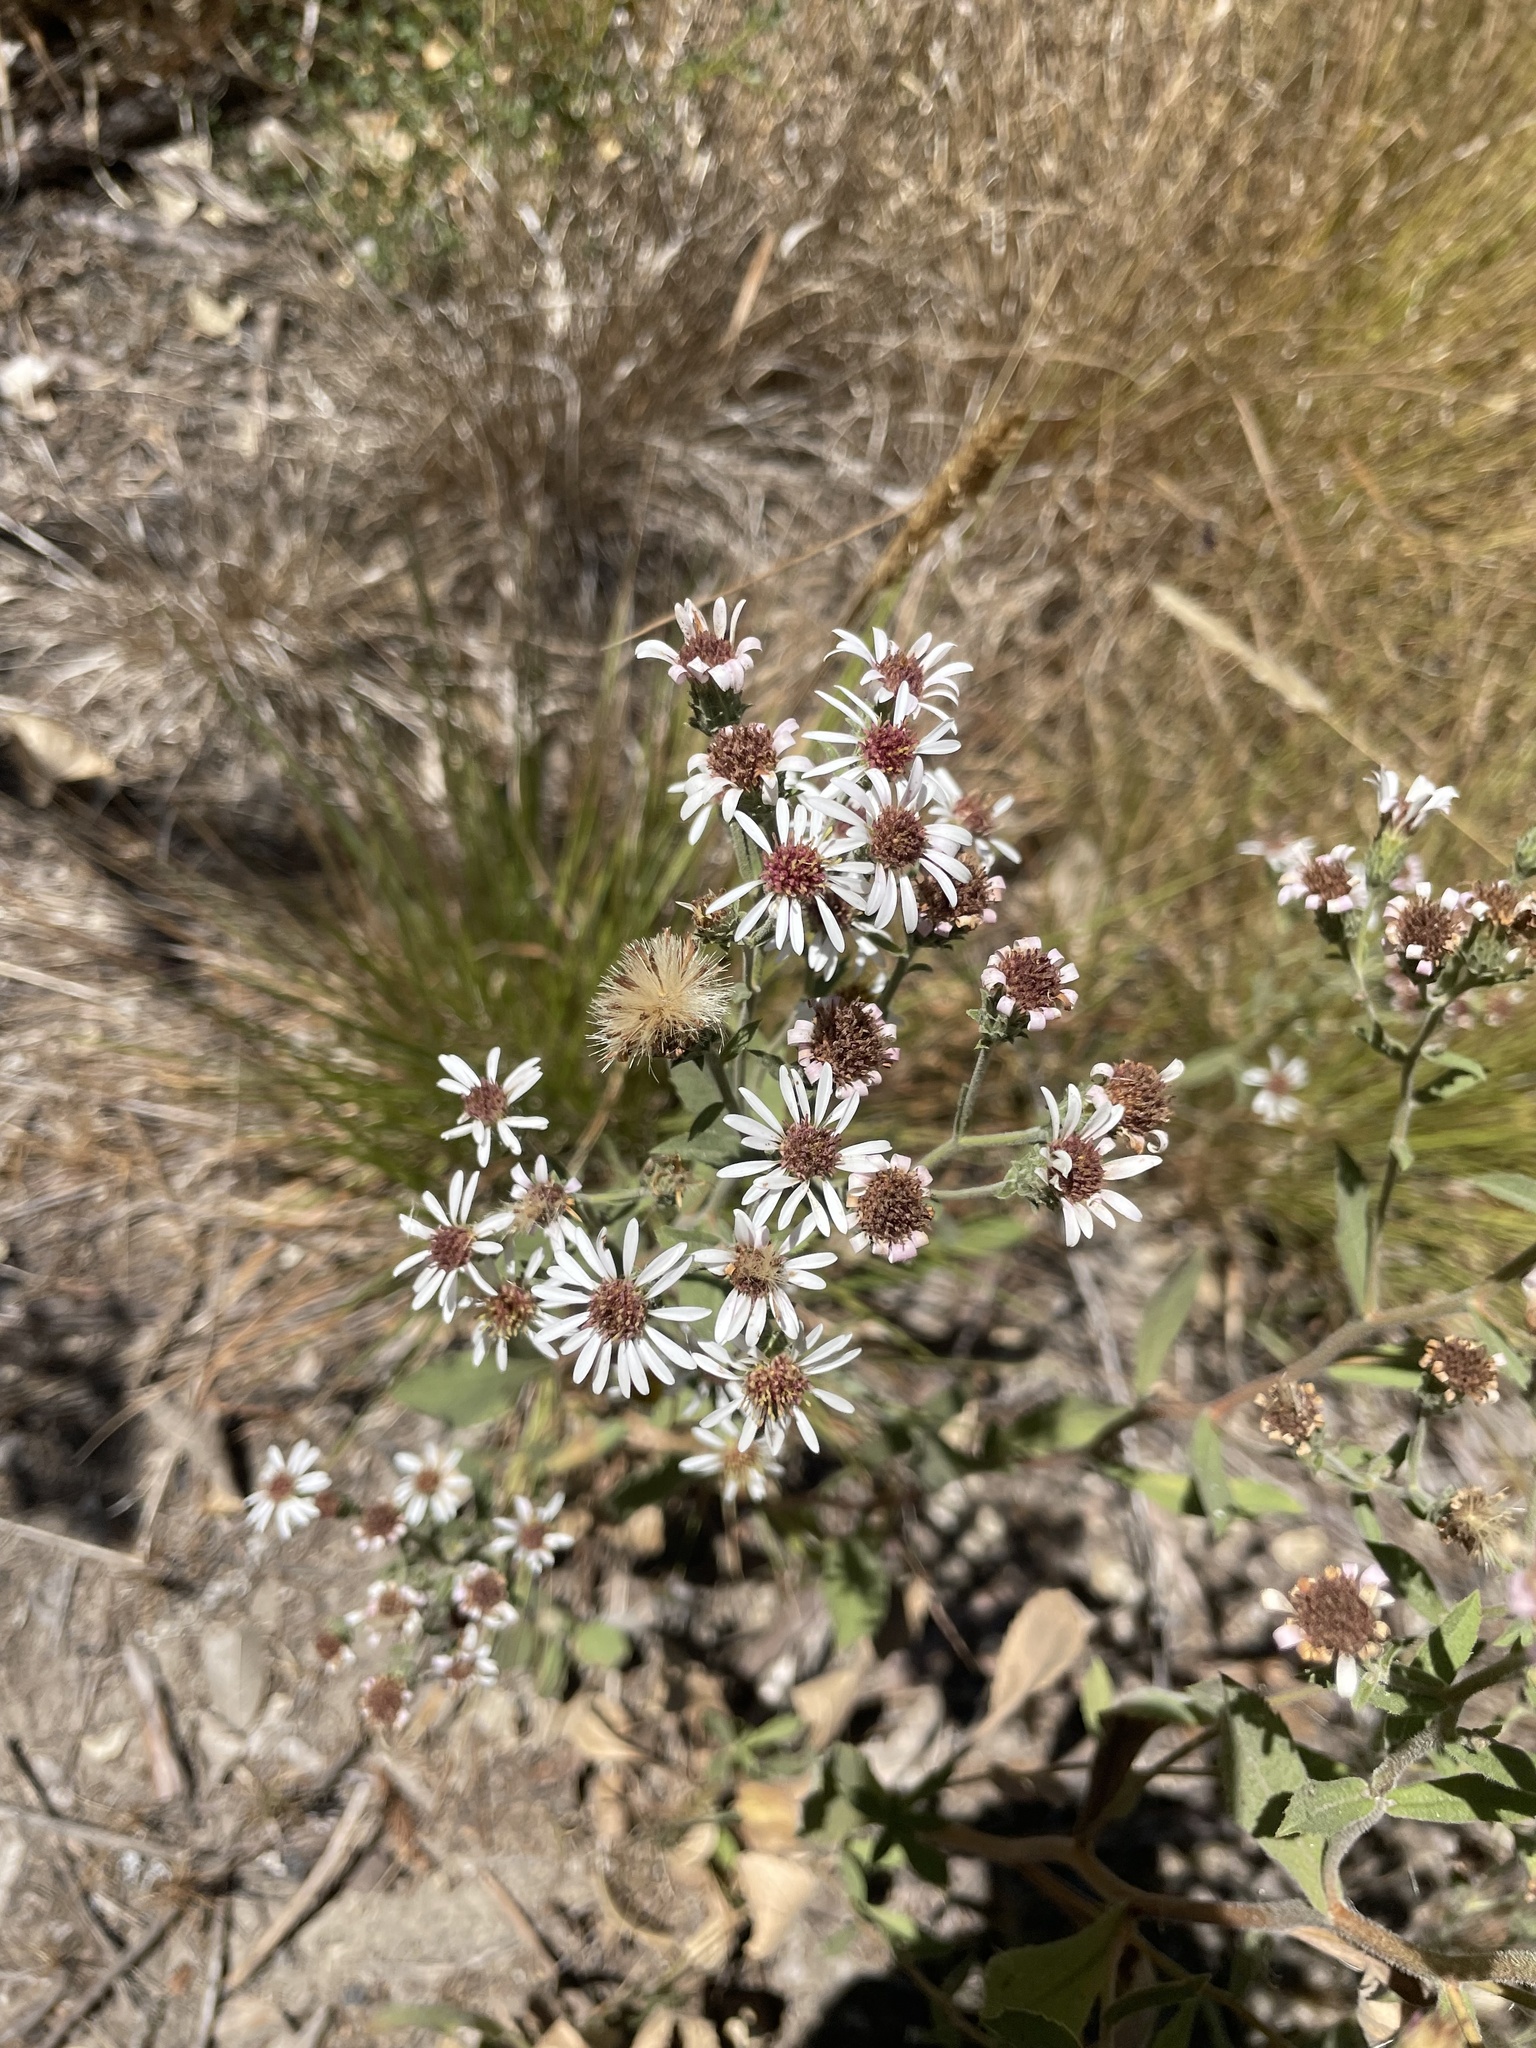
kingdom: Plantae
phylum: Tracheophyta
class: Magnoliopsida
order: Asterales
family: Asteraceae
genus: Eurybia
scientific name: Eurybia radulina
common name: Rough-leaved aster
